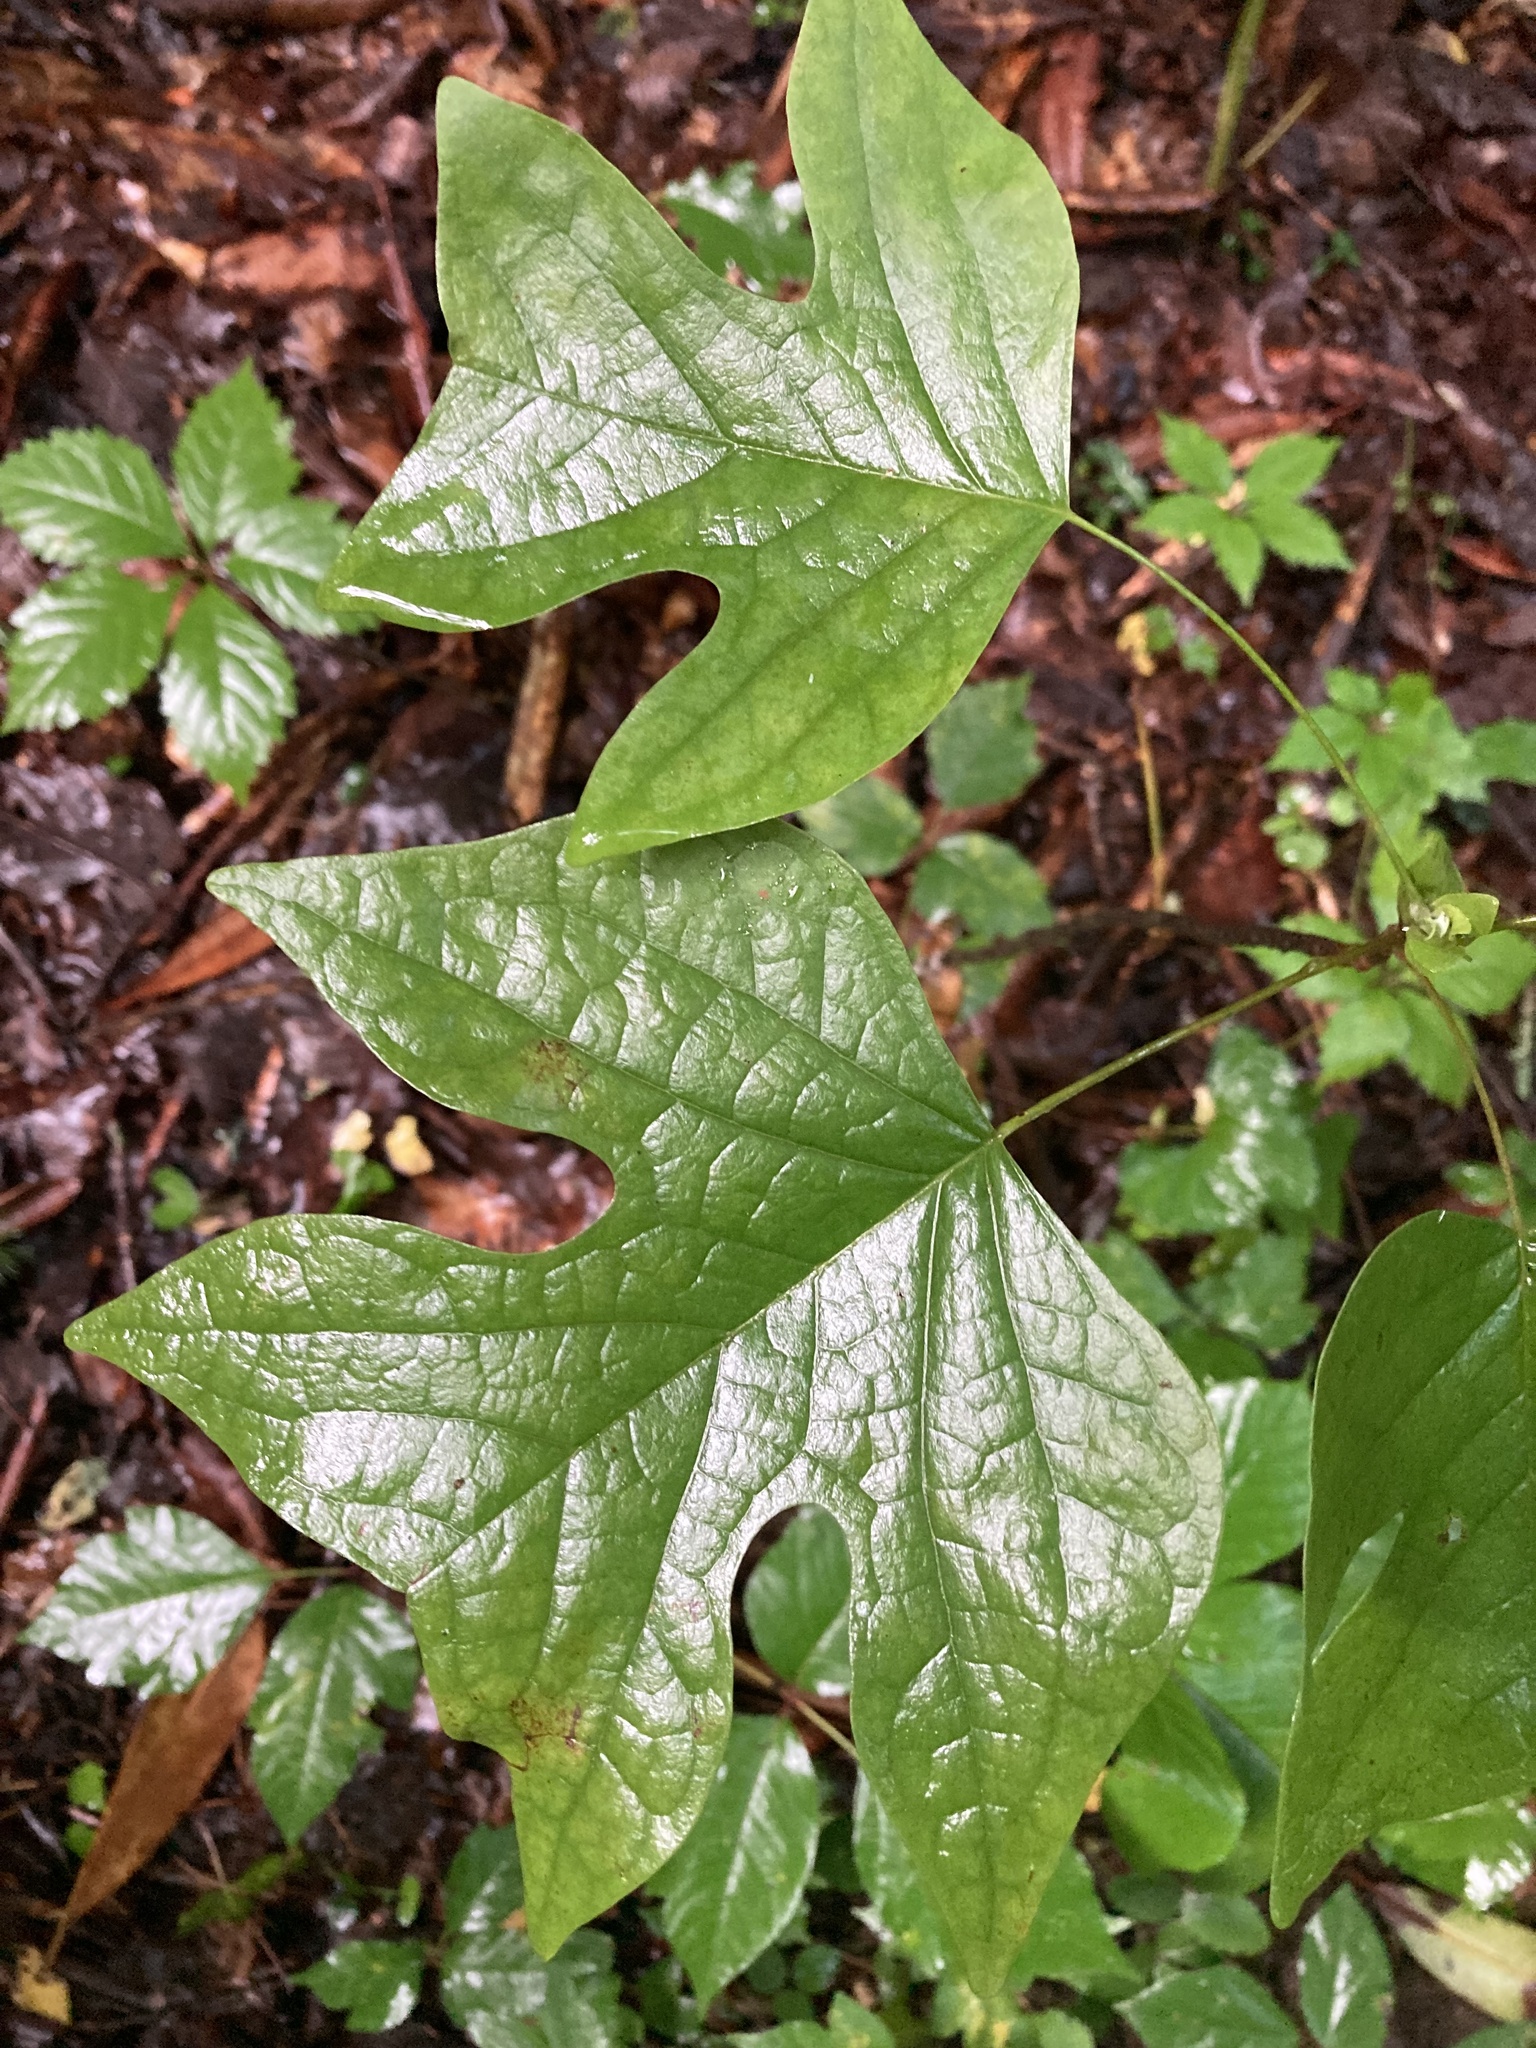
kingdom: Plantae
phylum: Tracheophyta
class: Magnoliopsida
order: Magnoliales
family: Magnoliaceae
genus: Liriodendron
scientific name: Liriodendron tulipifera
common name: Tulip tree
